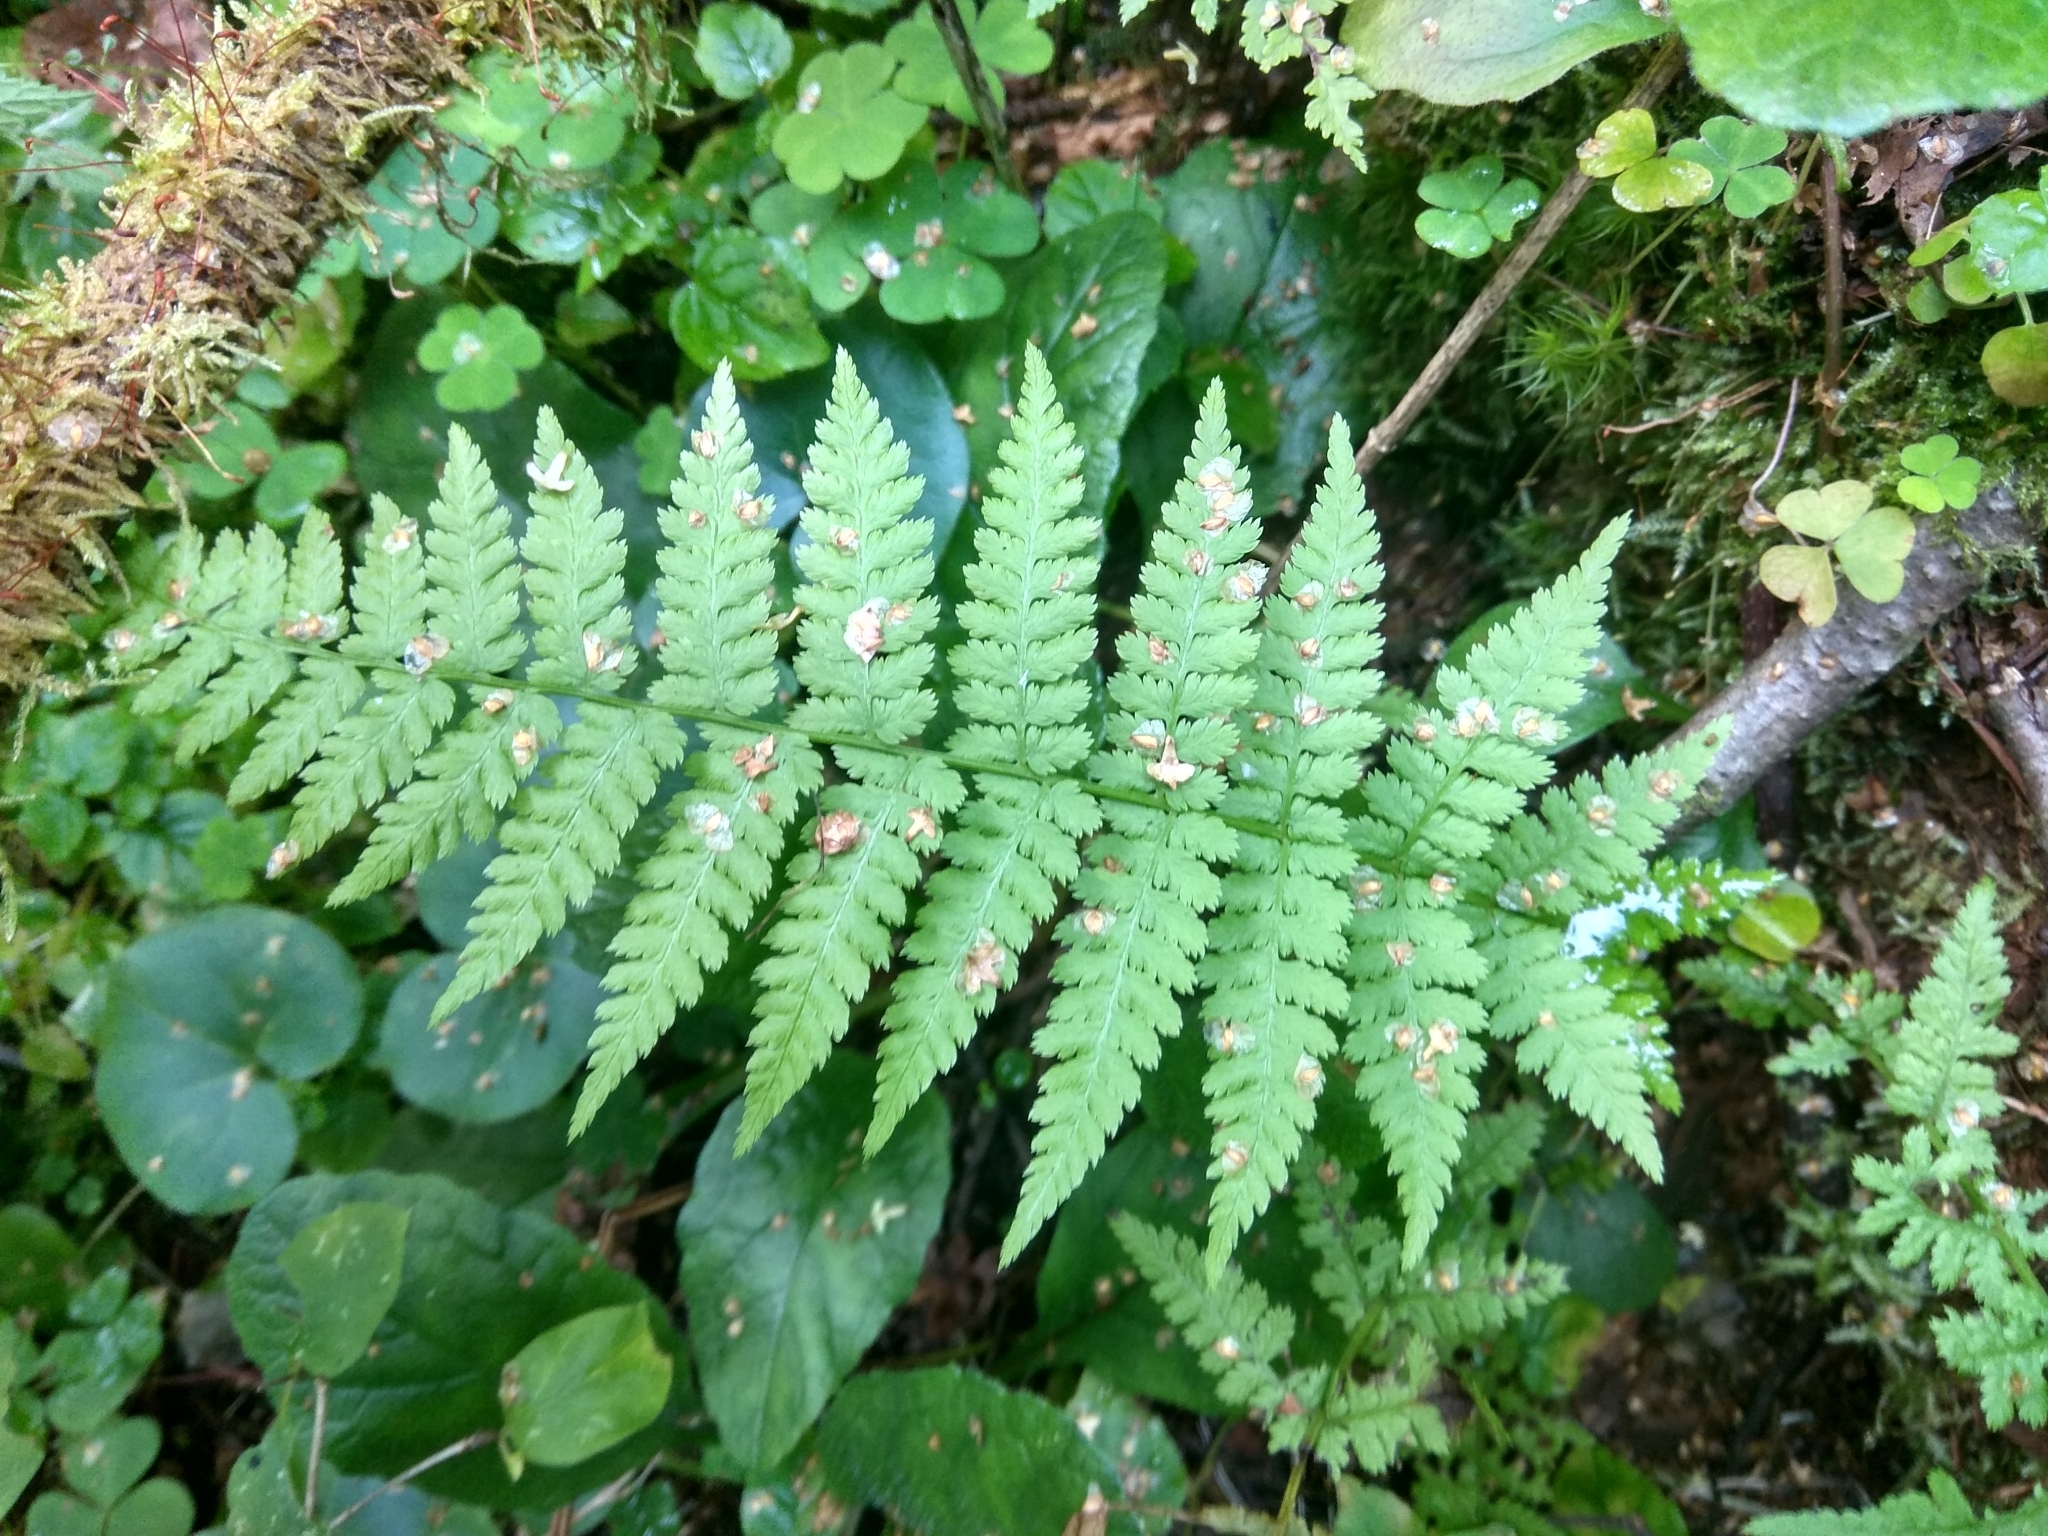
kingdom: Plantae
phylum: Tracheophyta
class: Polypodiopsida
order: Polypodiales
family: Dryopteridaceae
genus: Dryopteris
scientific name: Dryopteris carthusiana
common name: Narrow buckler-fern
